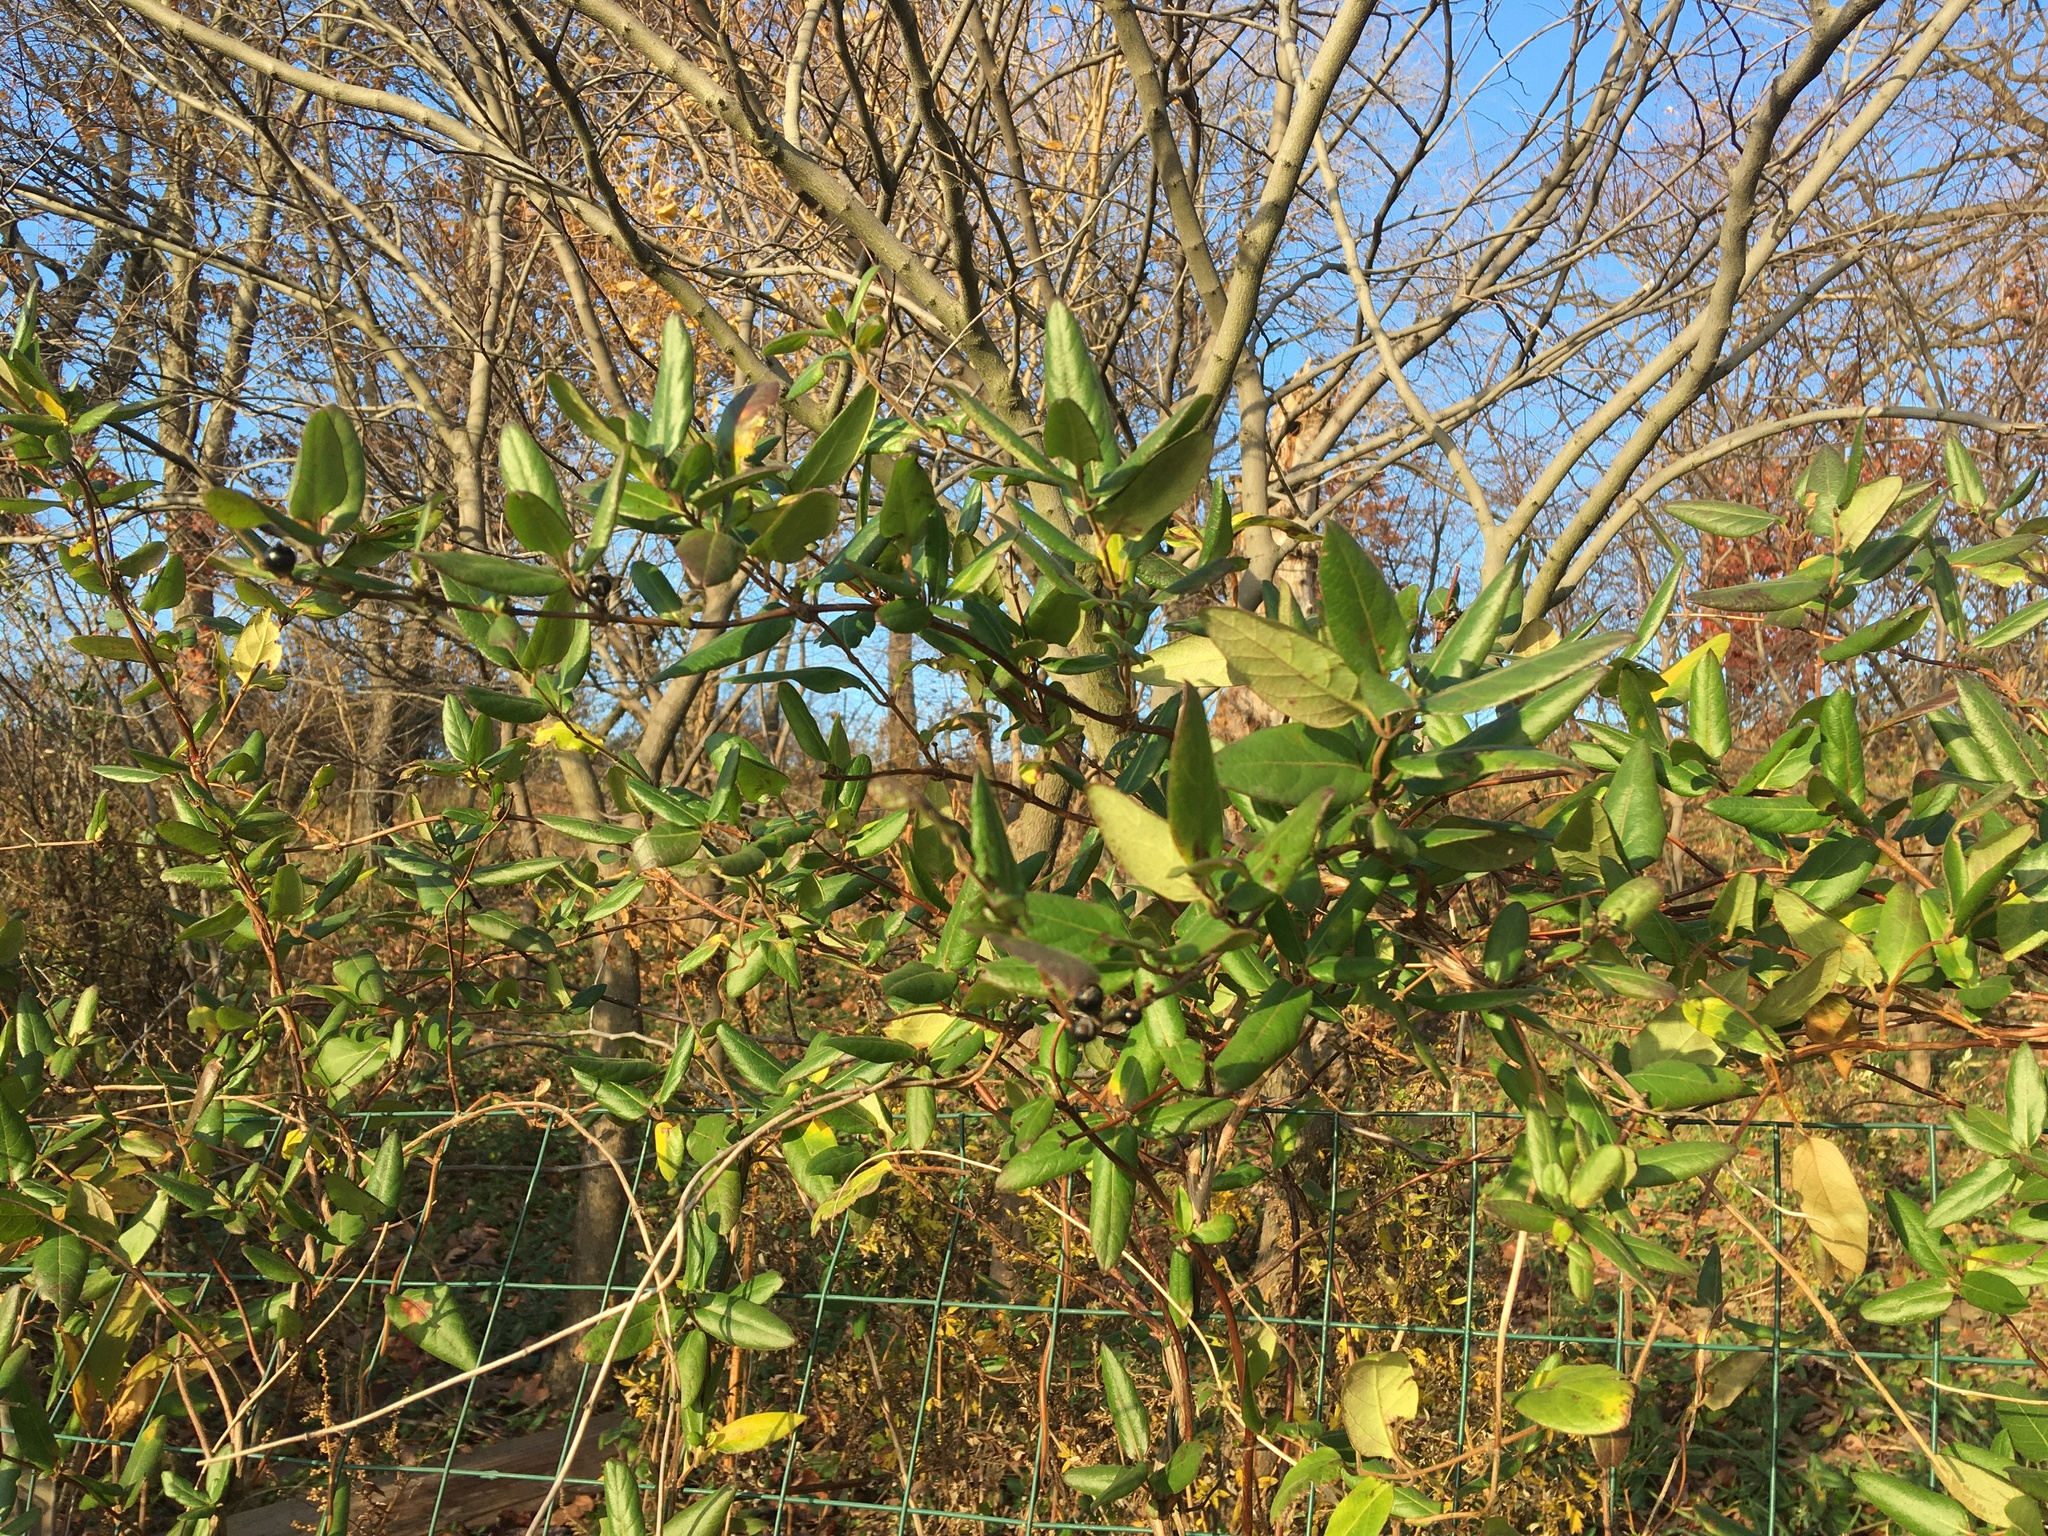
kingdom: Plantae
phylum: Tracheophyta
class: Magnoliopsida
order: Dipsacales
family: Caprifoliaceae
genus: Lonicera
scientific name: Lonicera japonica
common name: Japanese honeysuckle
